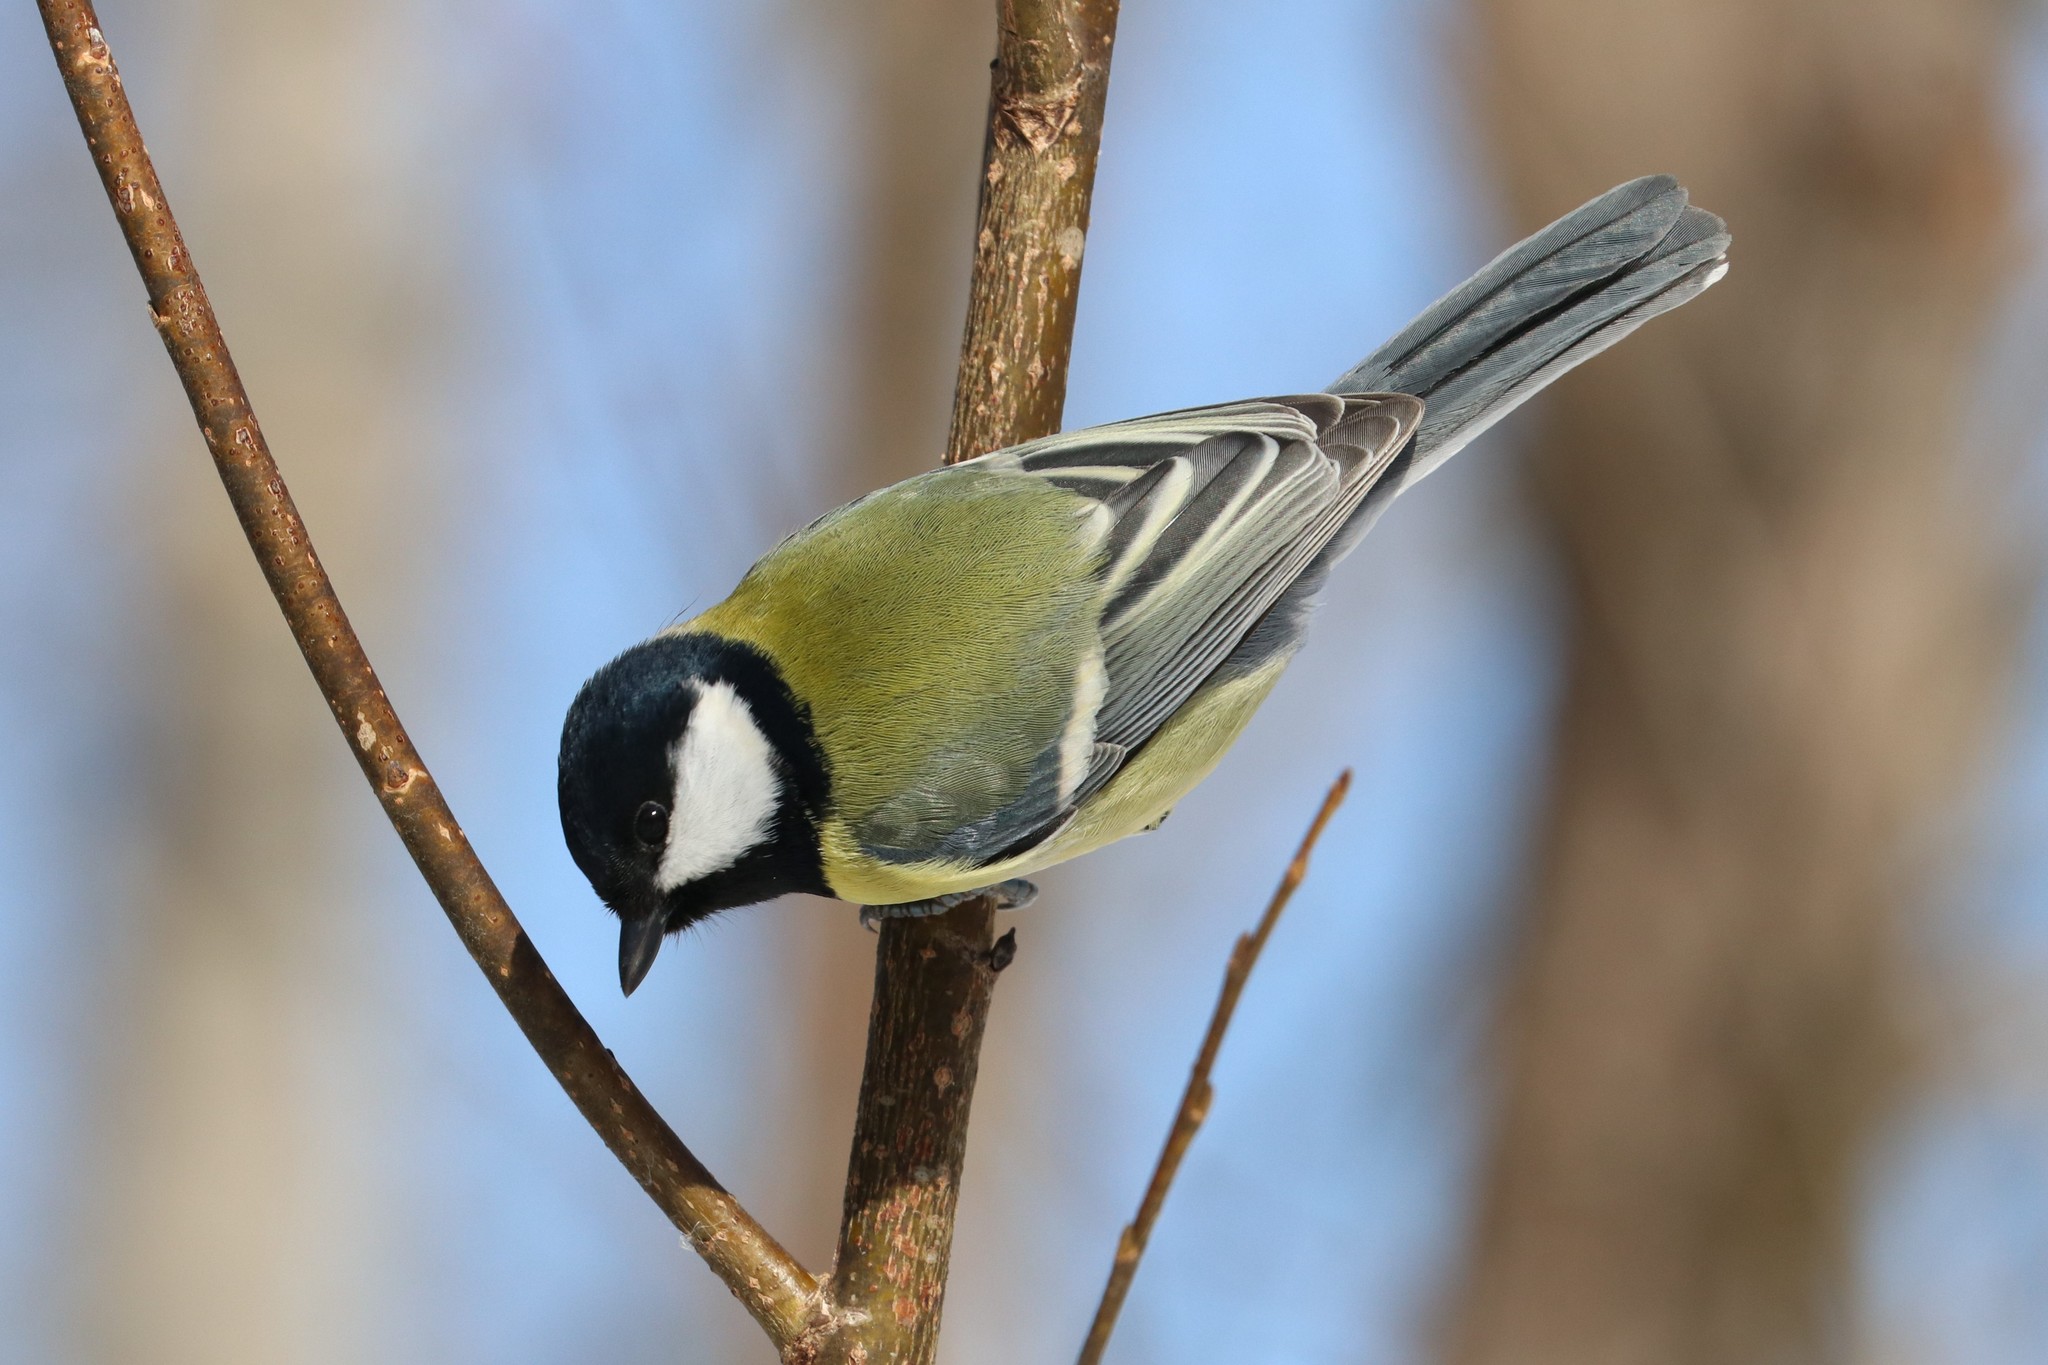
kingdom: Animalia
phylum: Chordata
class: Aves
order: Passeriformes
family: Paridae
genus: Parus
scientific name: Parus major
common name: Great tit
